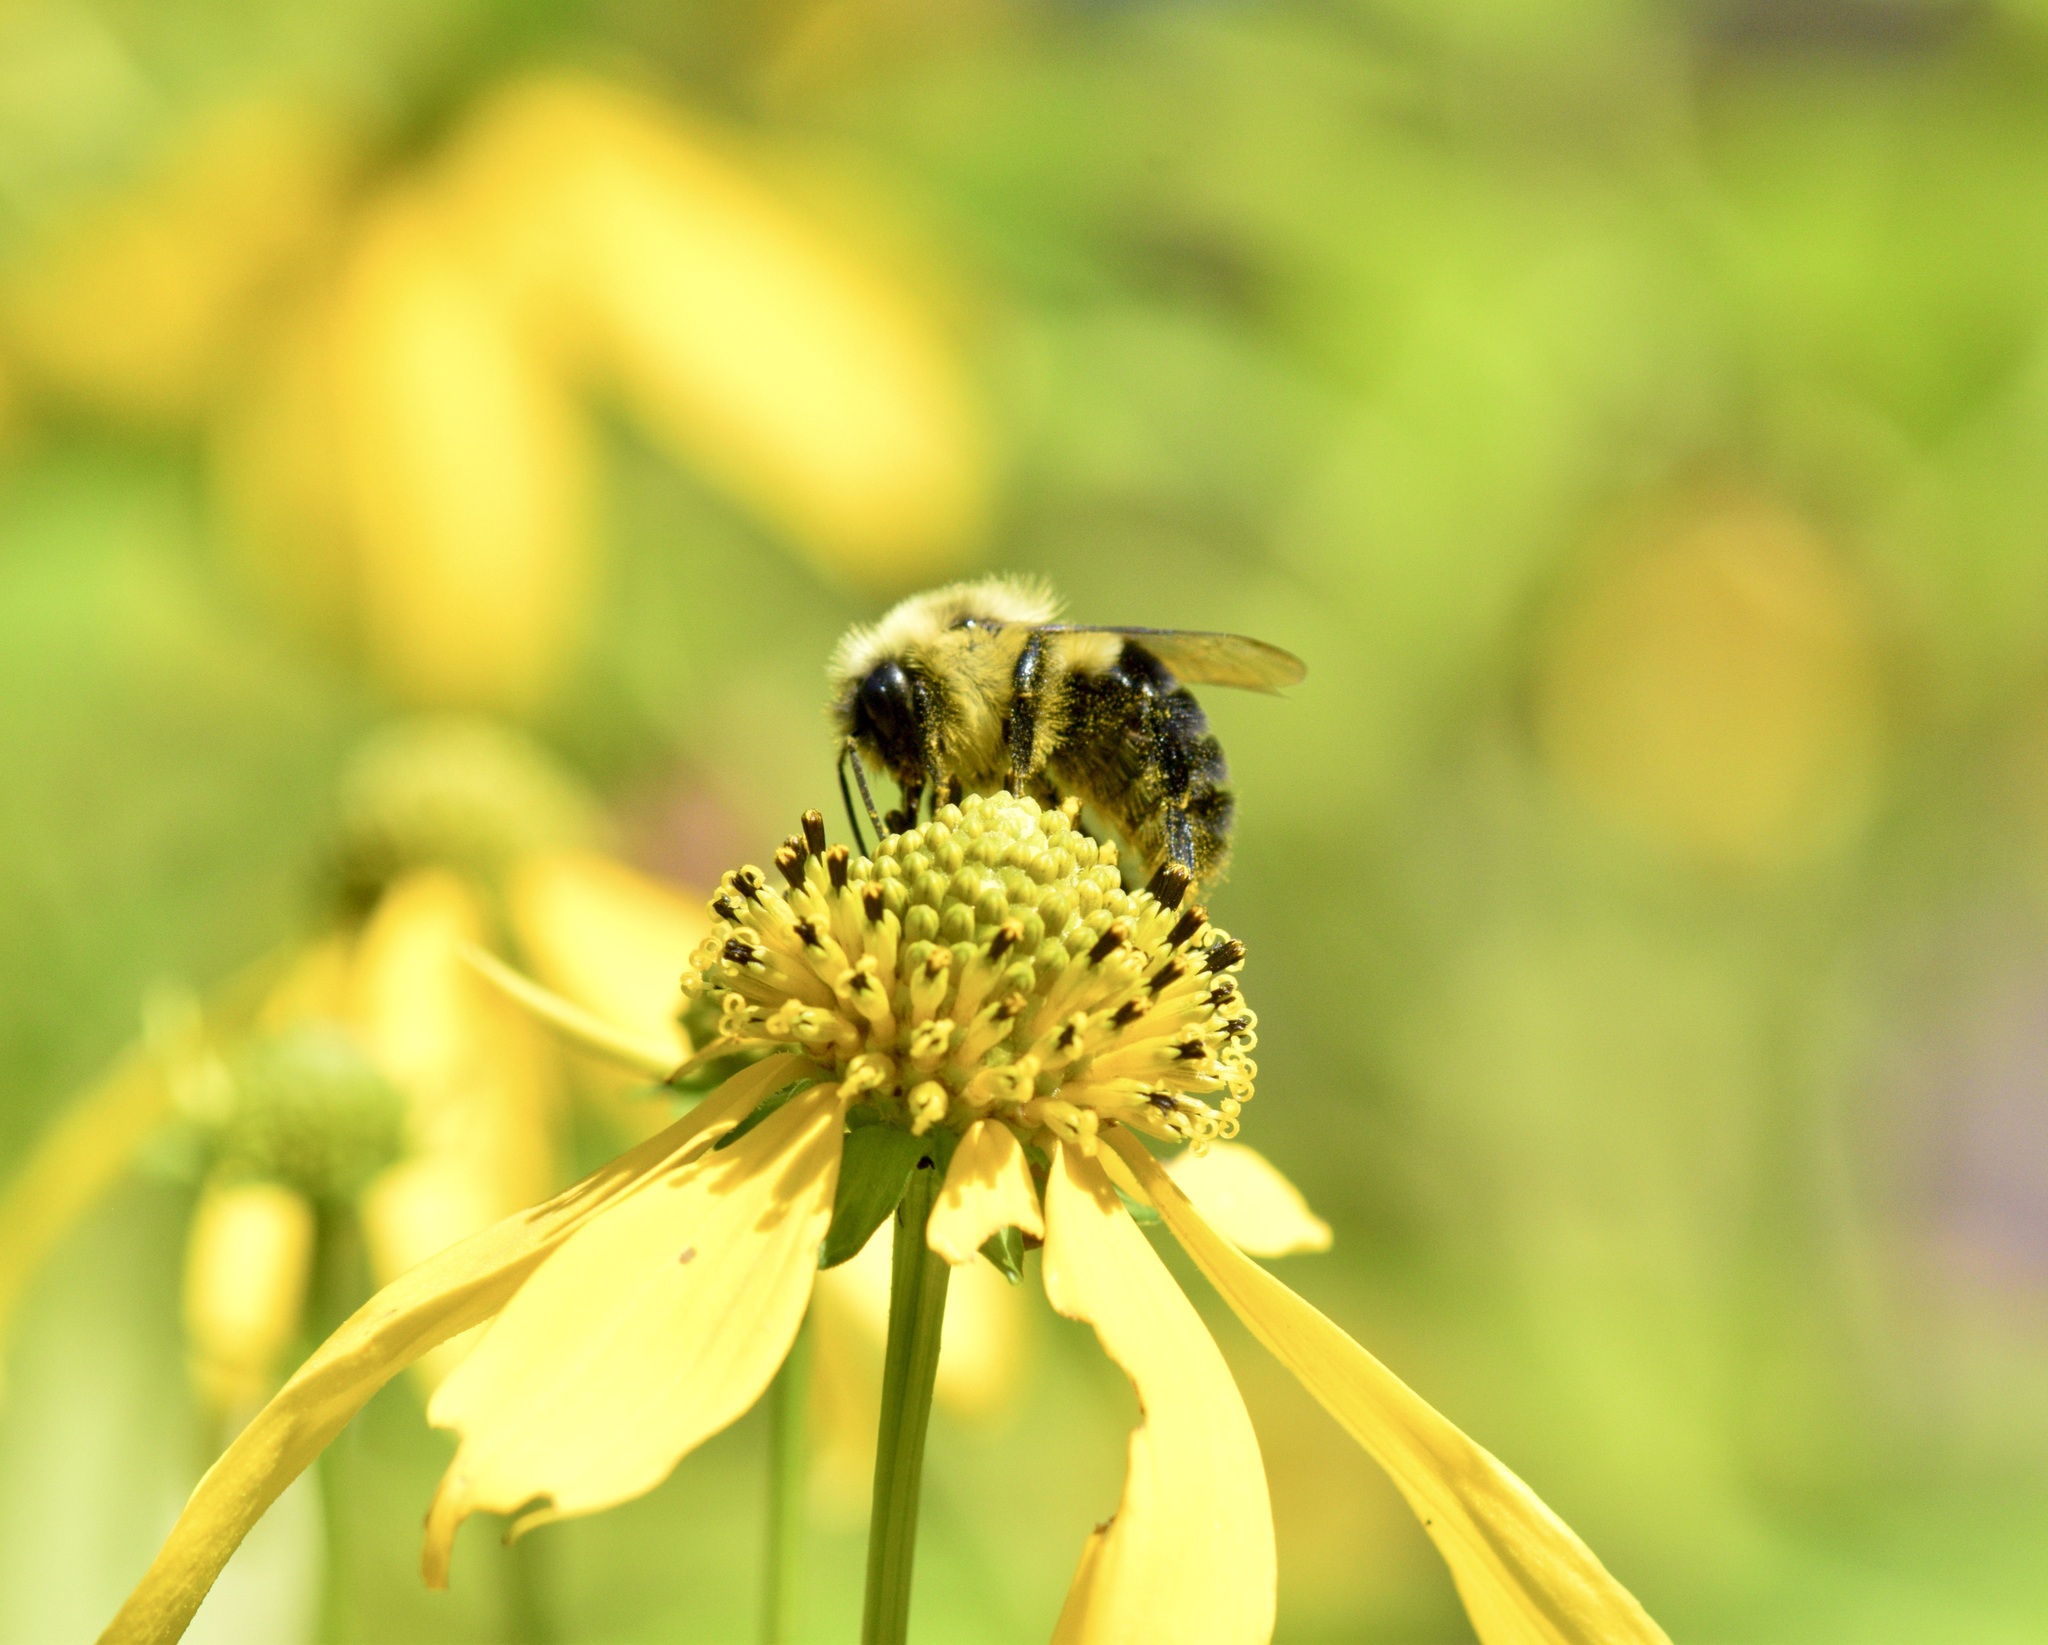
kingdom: Animalia
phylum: Arthropoda
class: Insecta
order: Hymenoptera
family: Apidae
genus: Bombus
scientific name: Bombus impatiens
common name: Common eastern bumble bee
